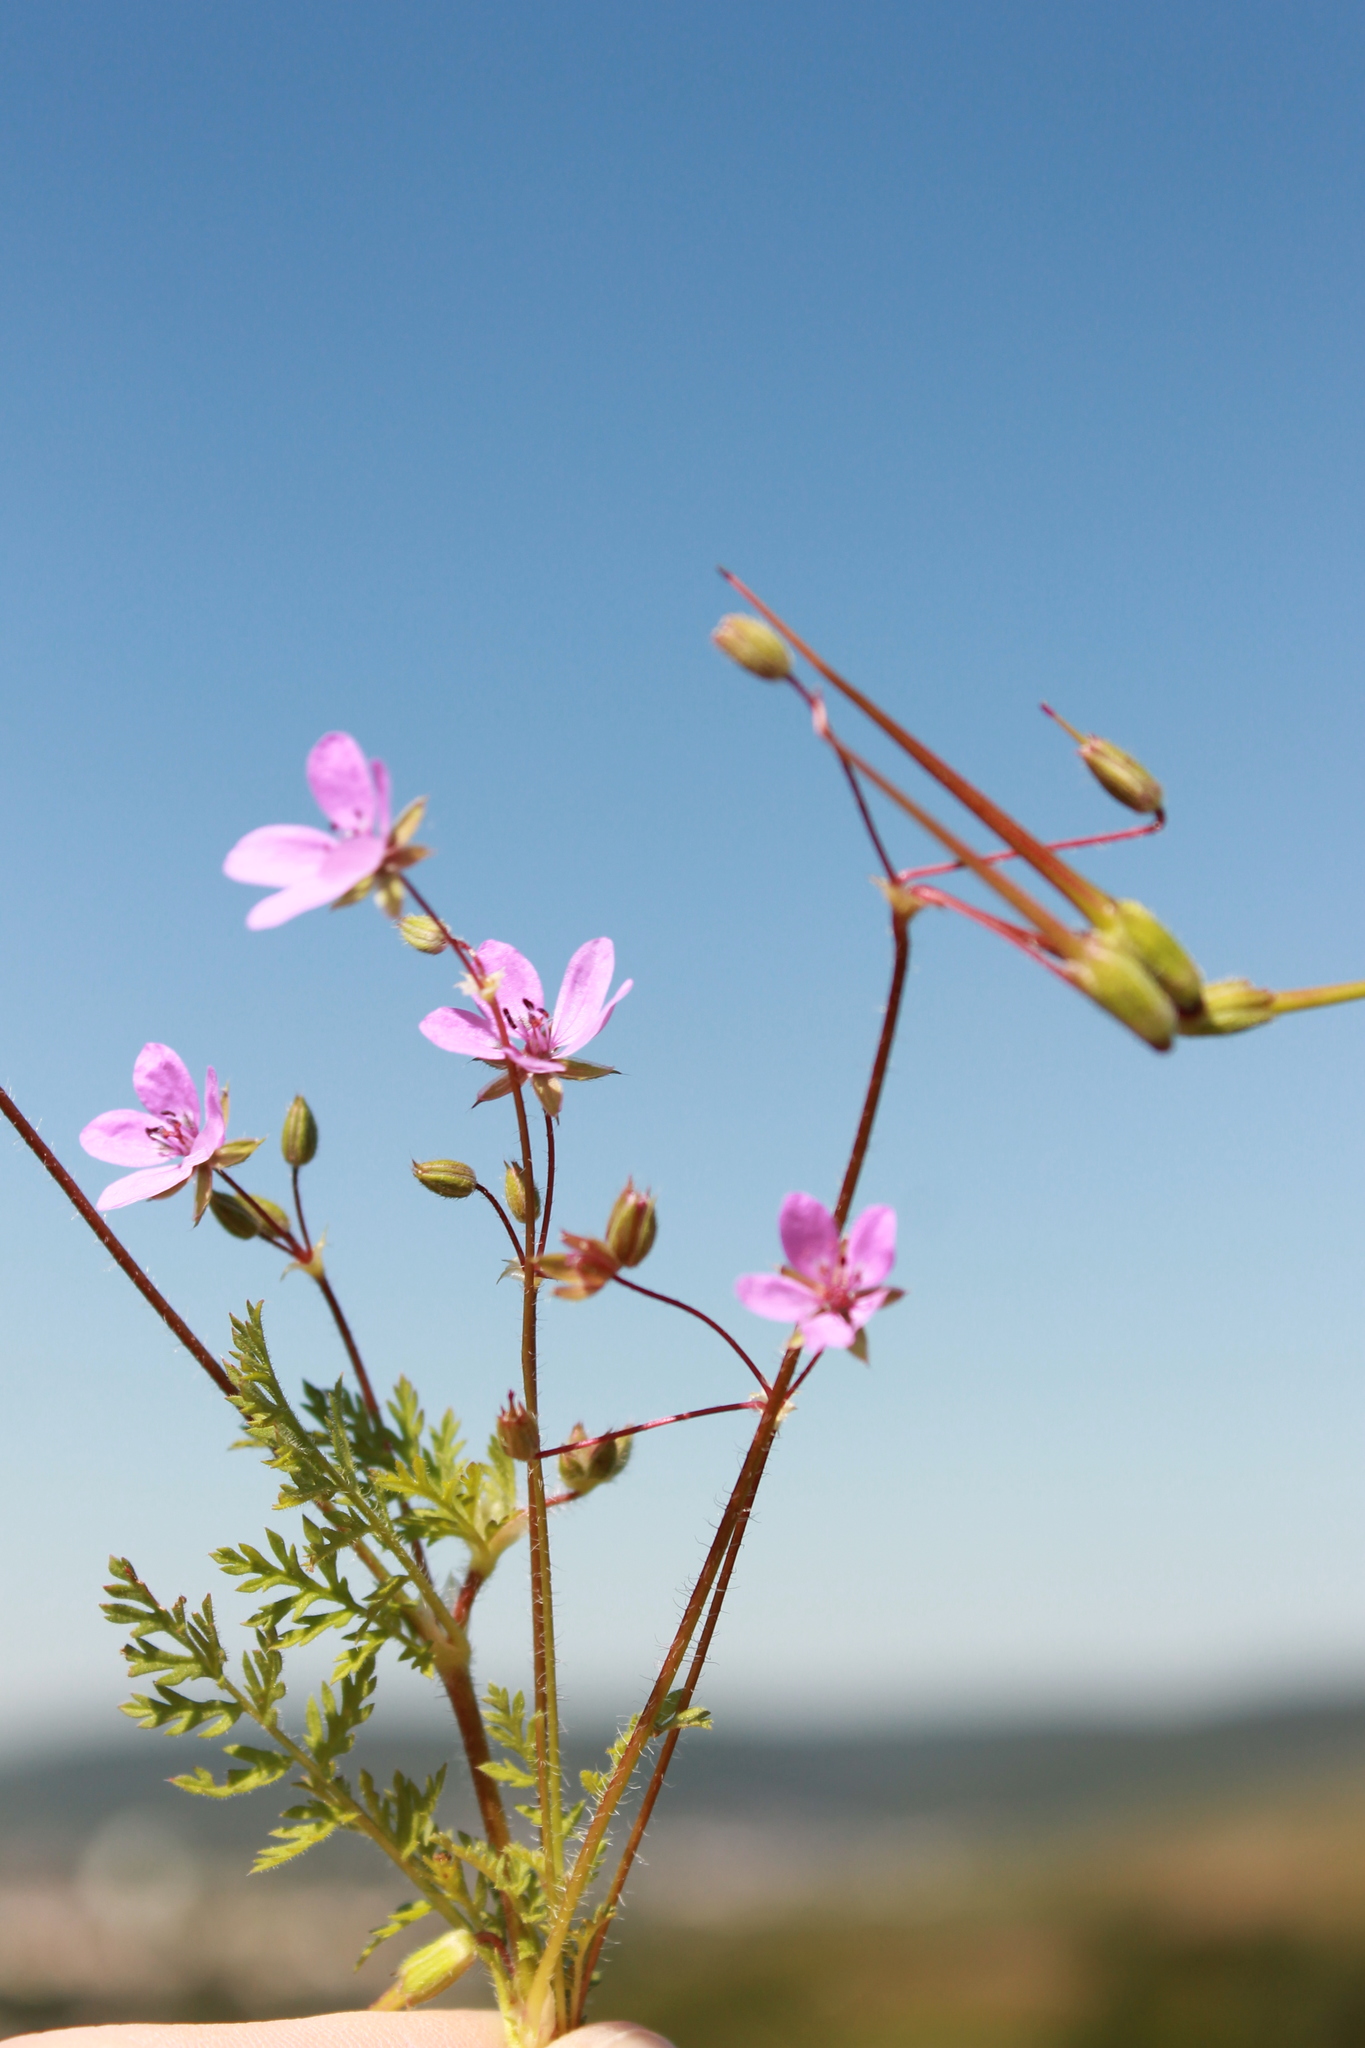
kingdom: Plantae
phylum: Tracheophyta
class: Magnoliopsida
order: Geraniales
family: Geraniaceae
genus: Erodium
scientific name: Erodium cicutarium
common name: Common stork's-bill
